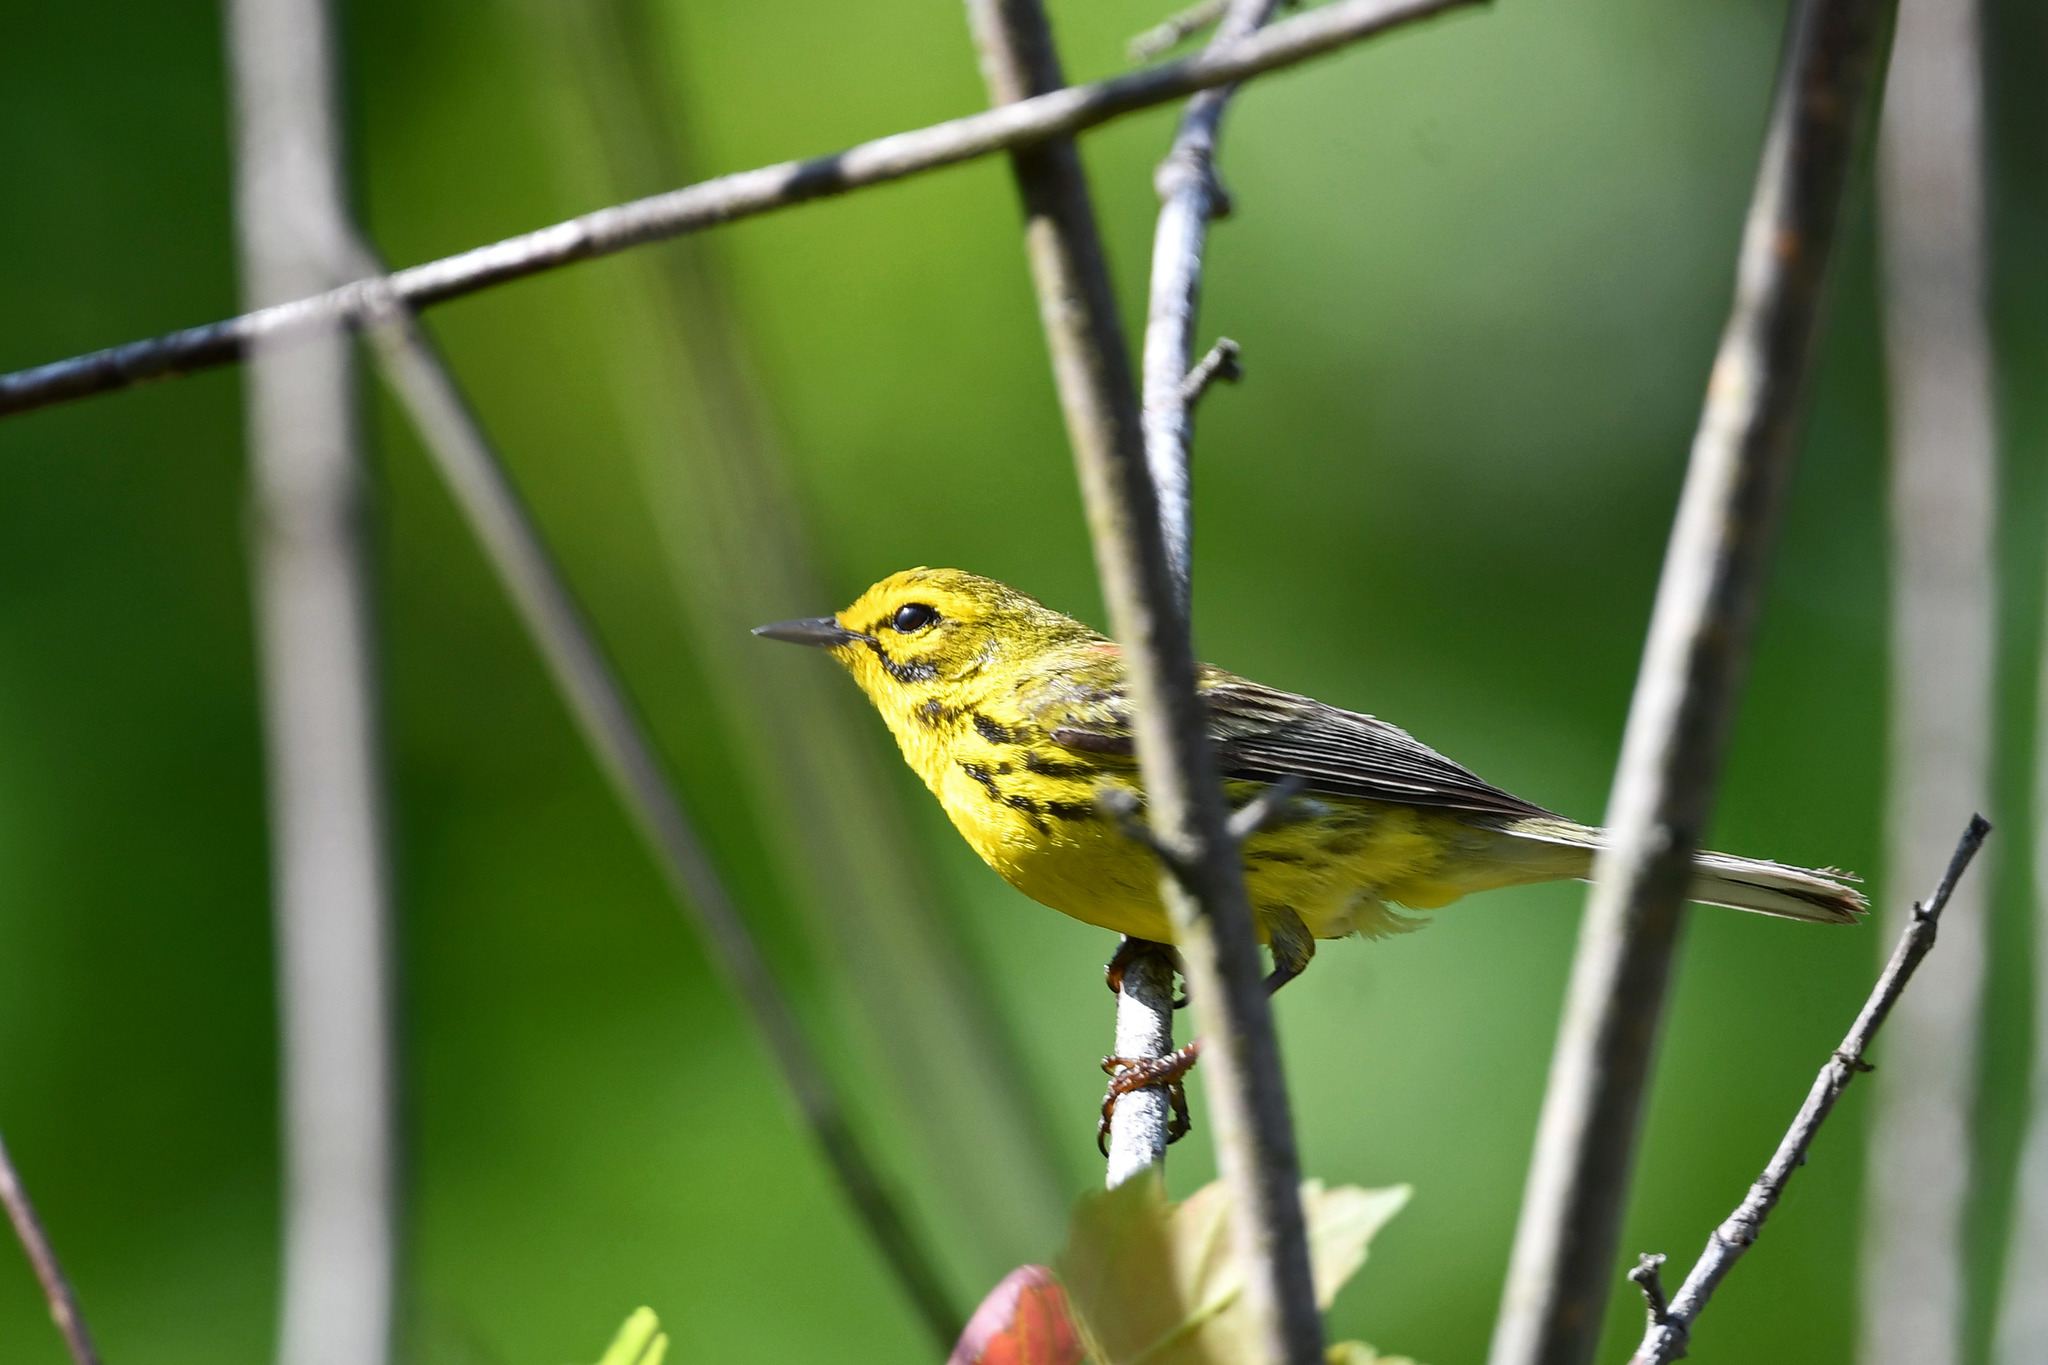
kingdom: Animalia
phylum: Chordata
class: Aves
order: Passeriformes
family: Parulidae
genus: Setophaga
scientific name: Setophaga discolor
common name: Prairie warbler
